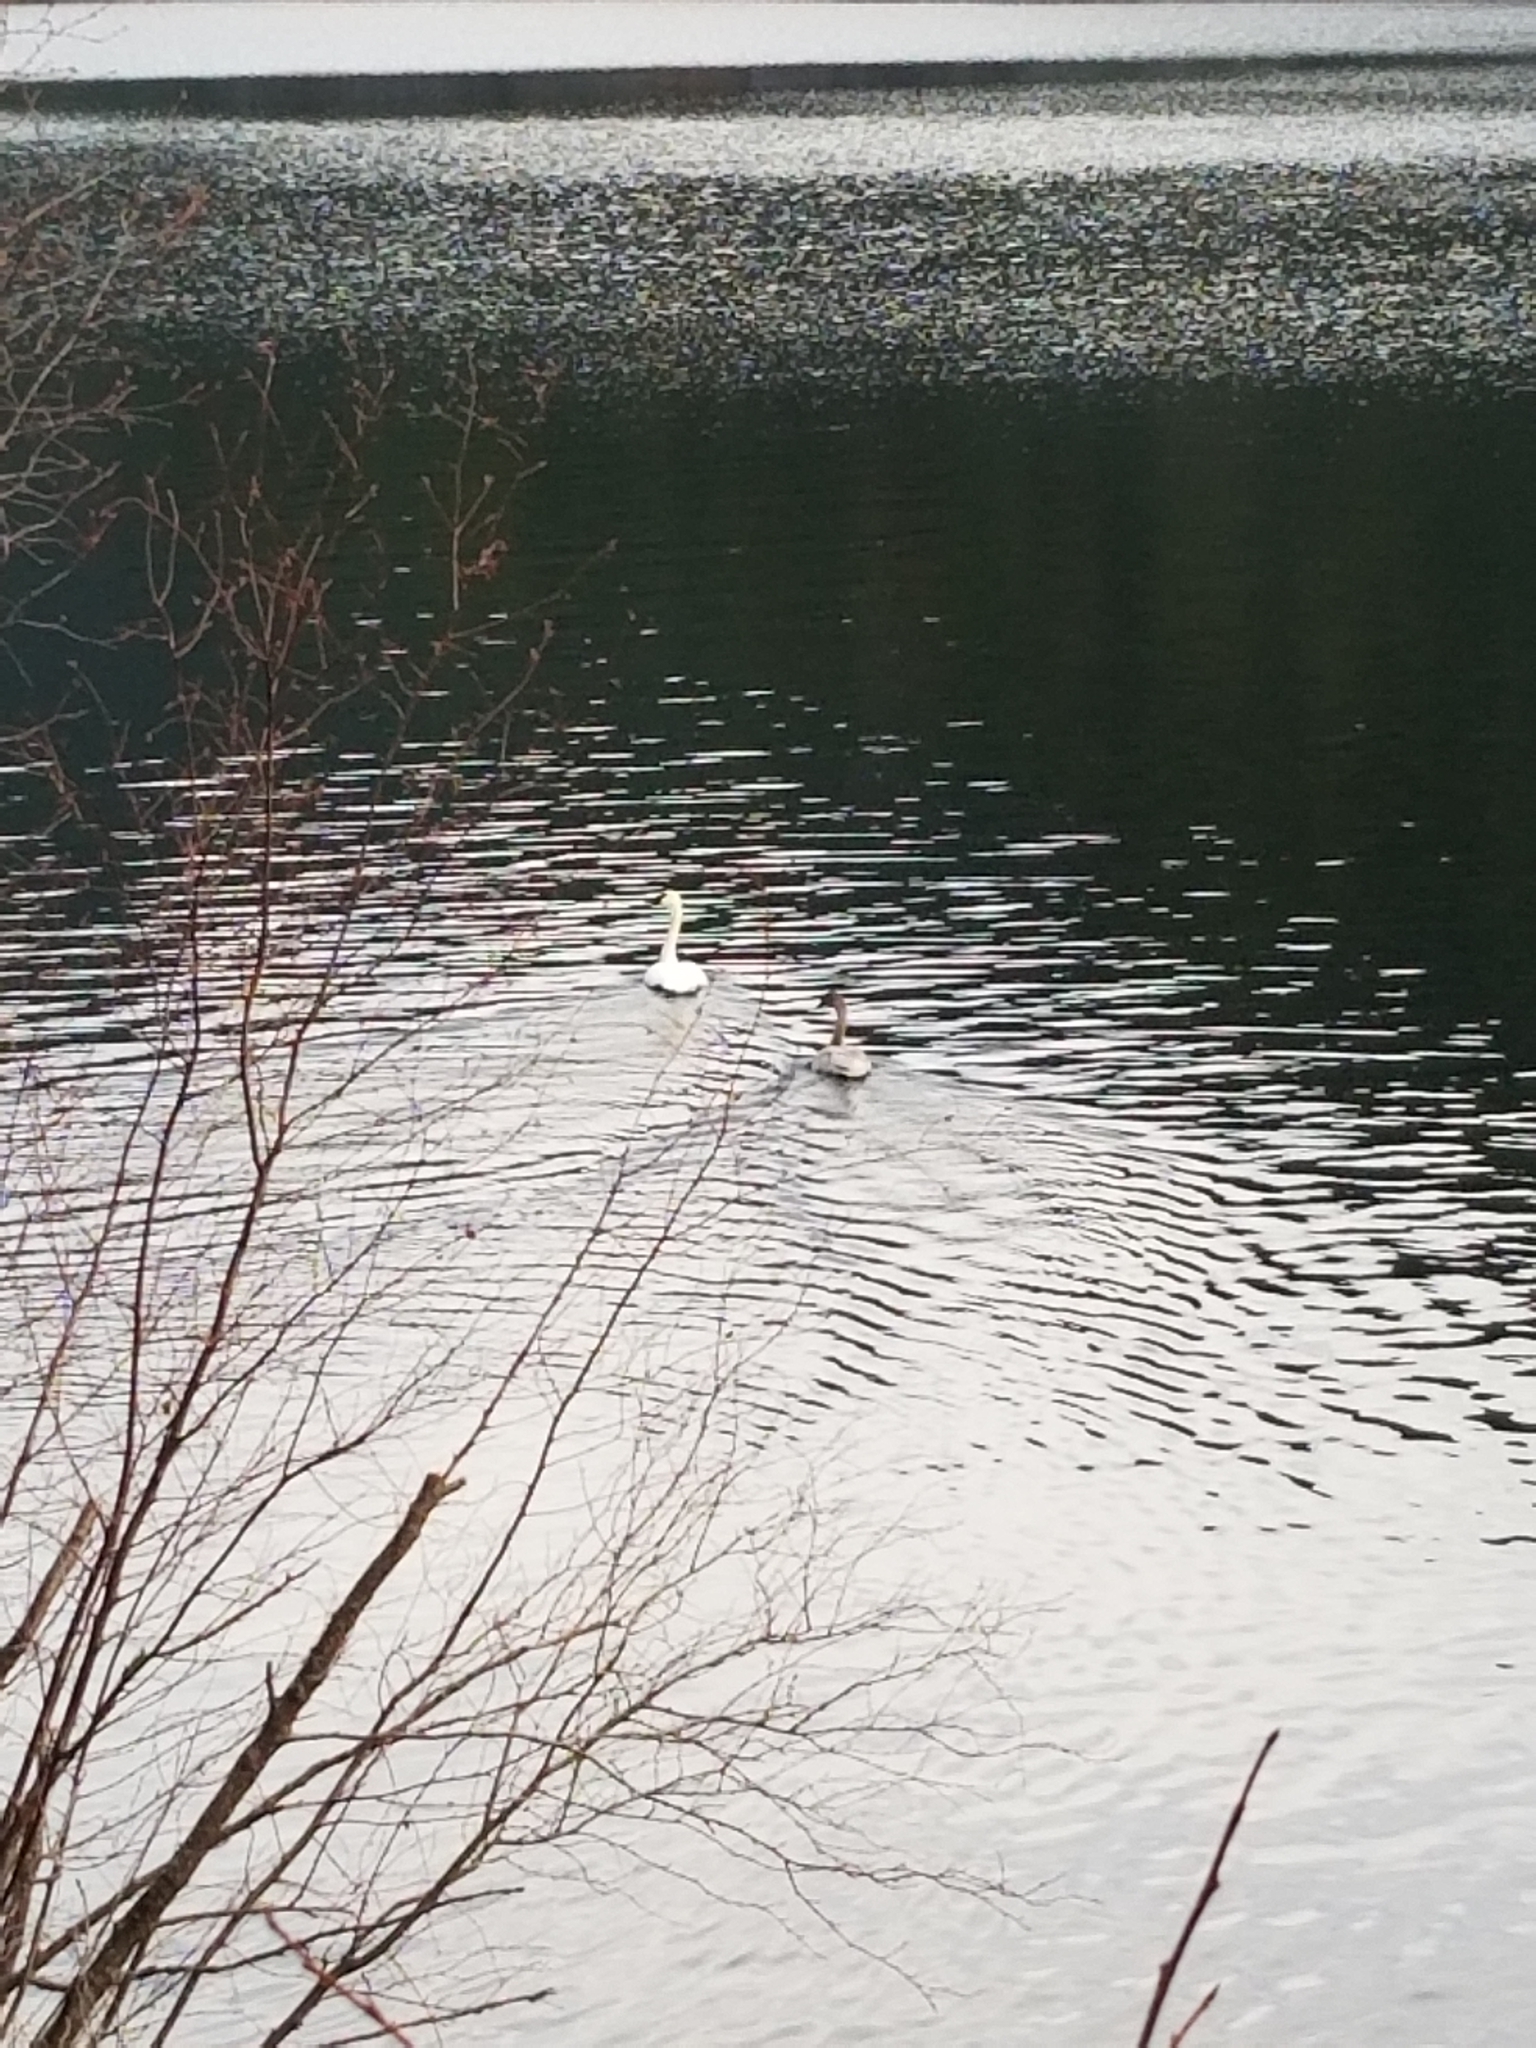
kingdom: Animalia
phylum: Chordata
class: Aves
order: Anseriformes
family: Anatidae
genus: Cygnus
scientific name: Cygnus buccinator
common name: Trumpeter swan
